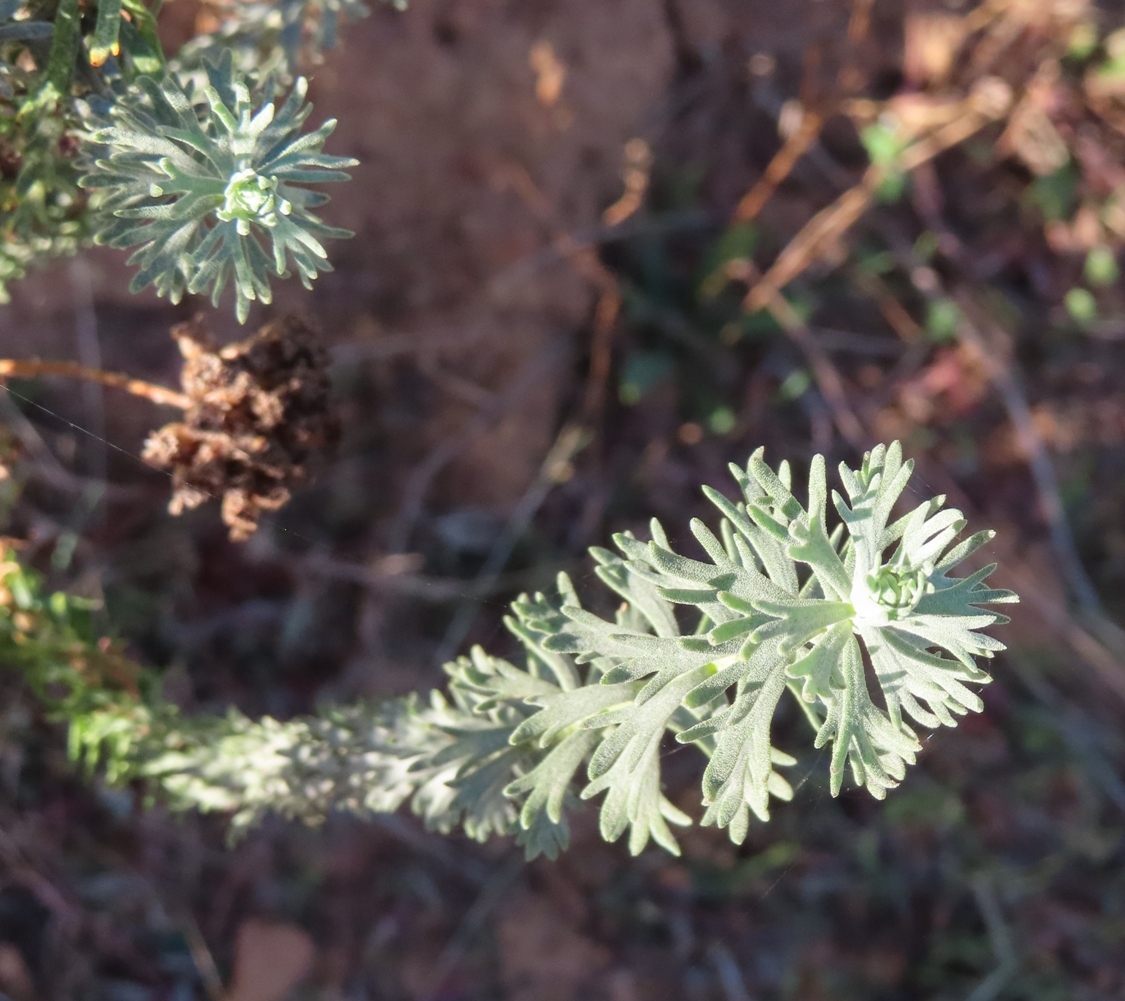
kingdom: Plantae
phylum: Tracheophyta
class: Magnoliopsida
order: Asterales
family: Asteraceae
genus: Athanasia
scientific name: Athanasia trifurcata
